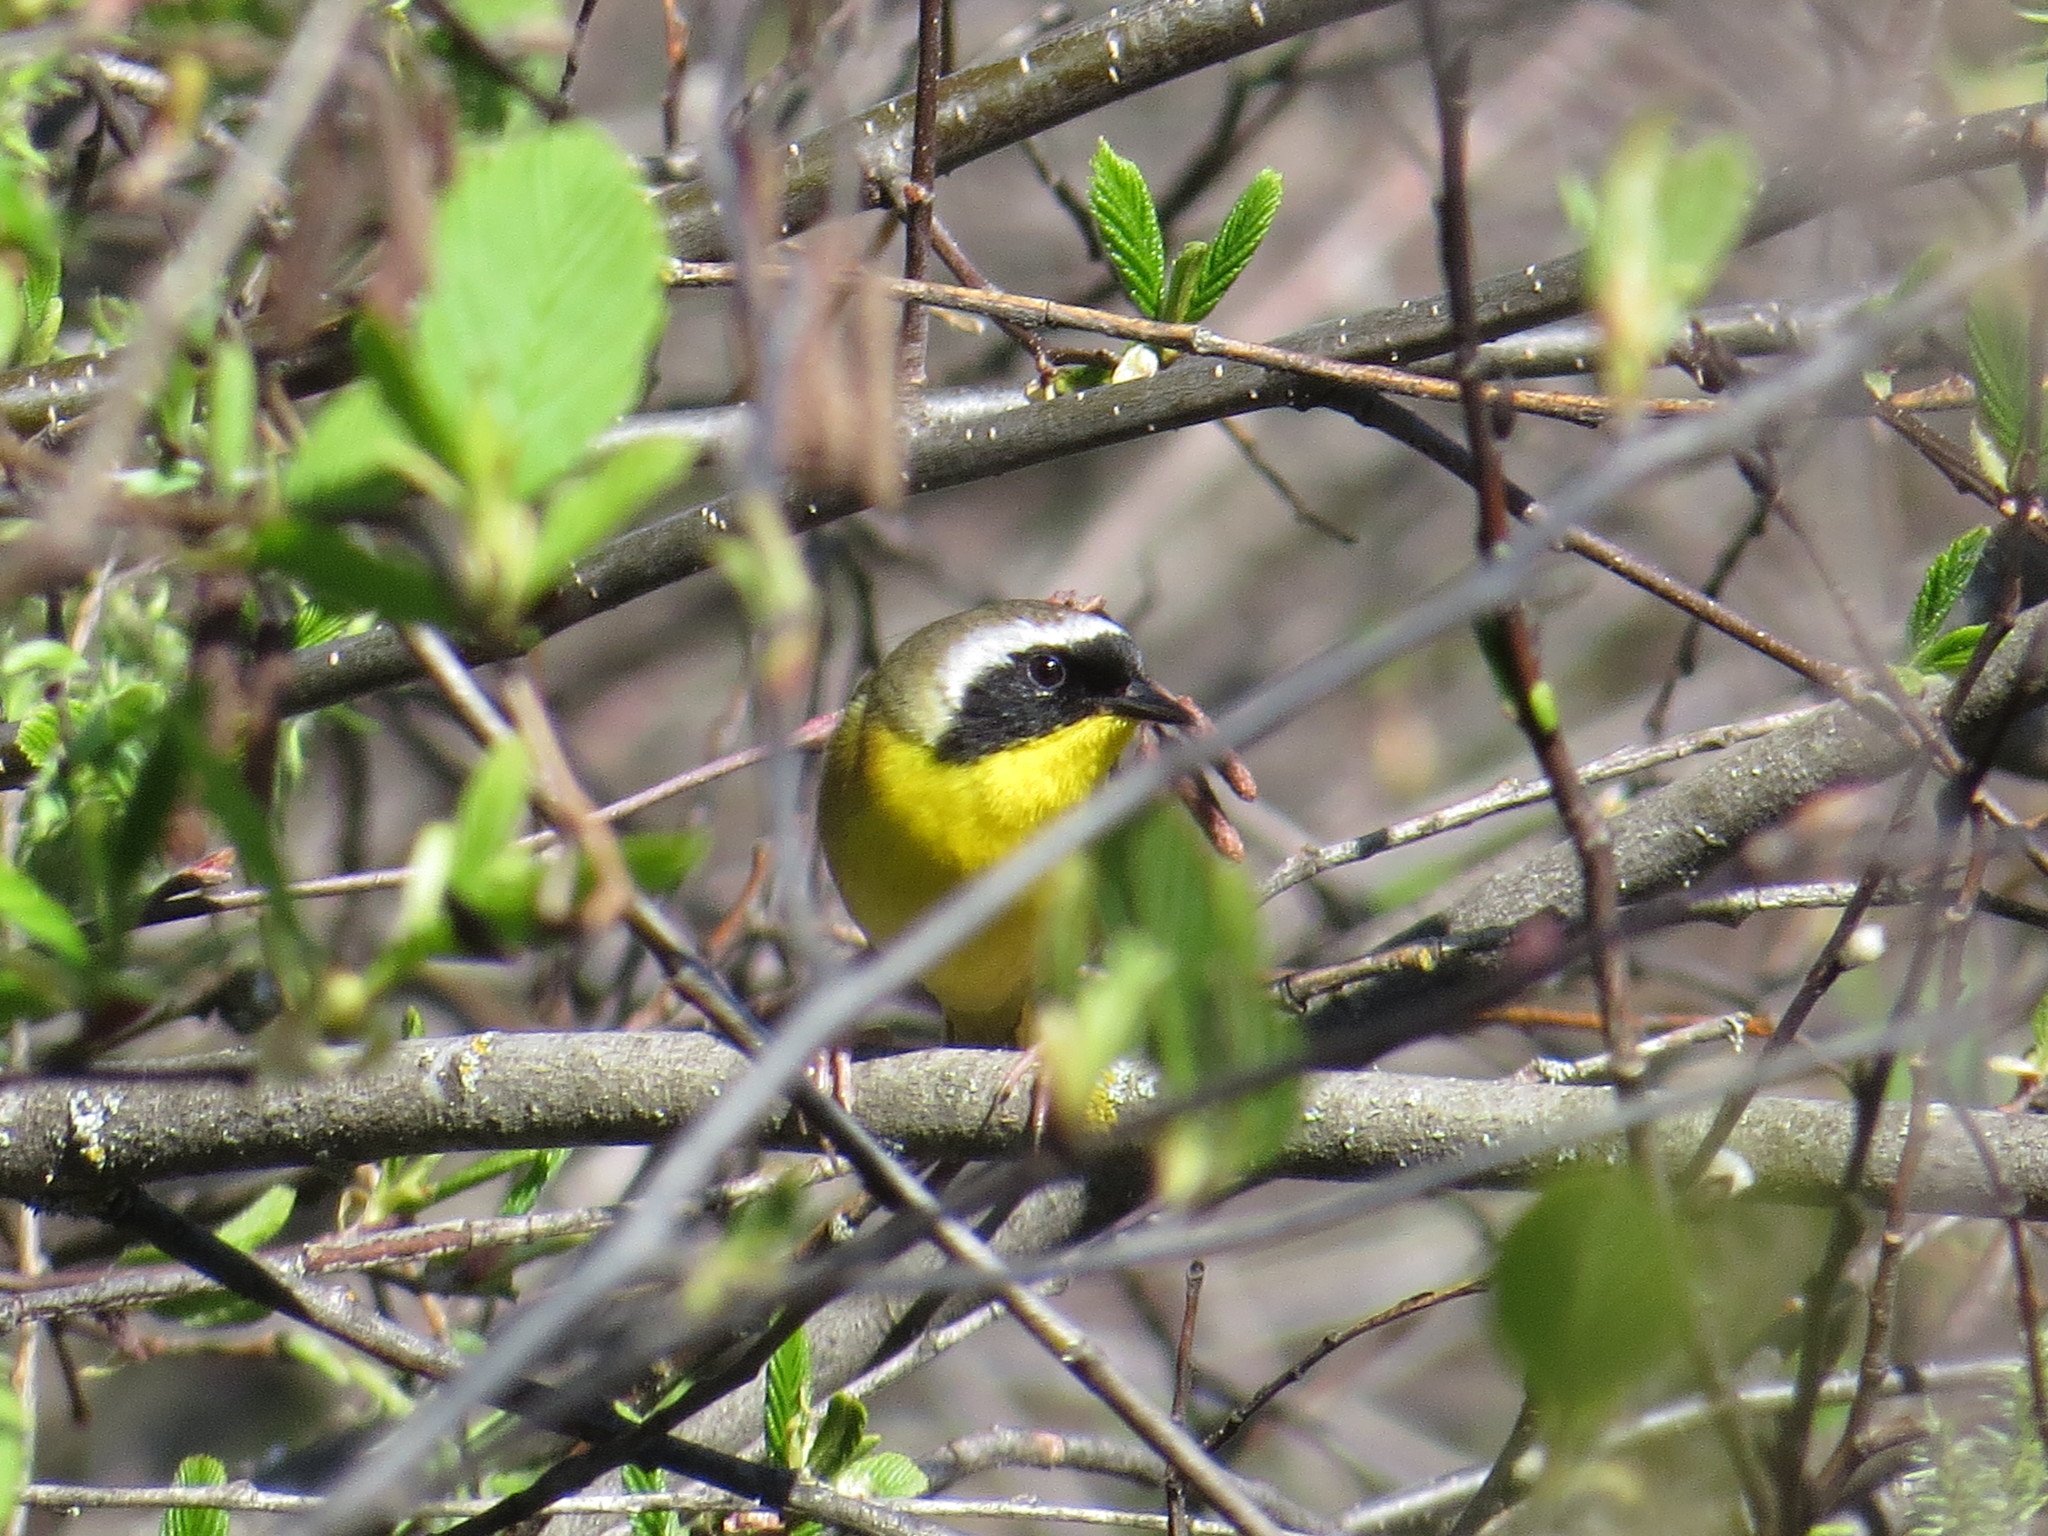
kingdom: Animalia
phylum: Chordata
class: Aves
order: Passeriformes
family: Parulidae
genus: Geothlypis
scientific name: Geothlypis trichas
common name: Common yellowthroat
